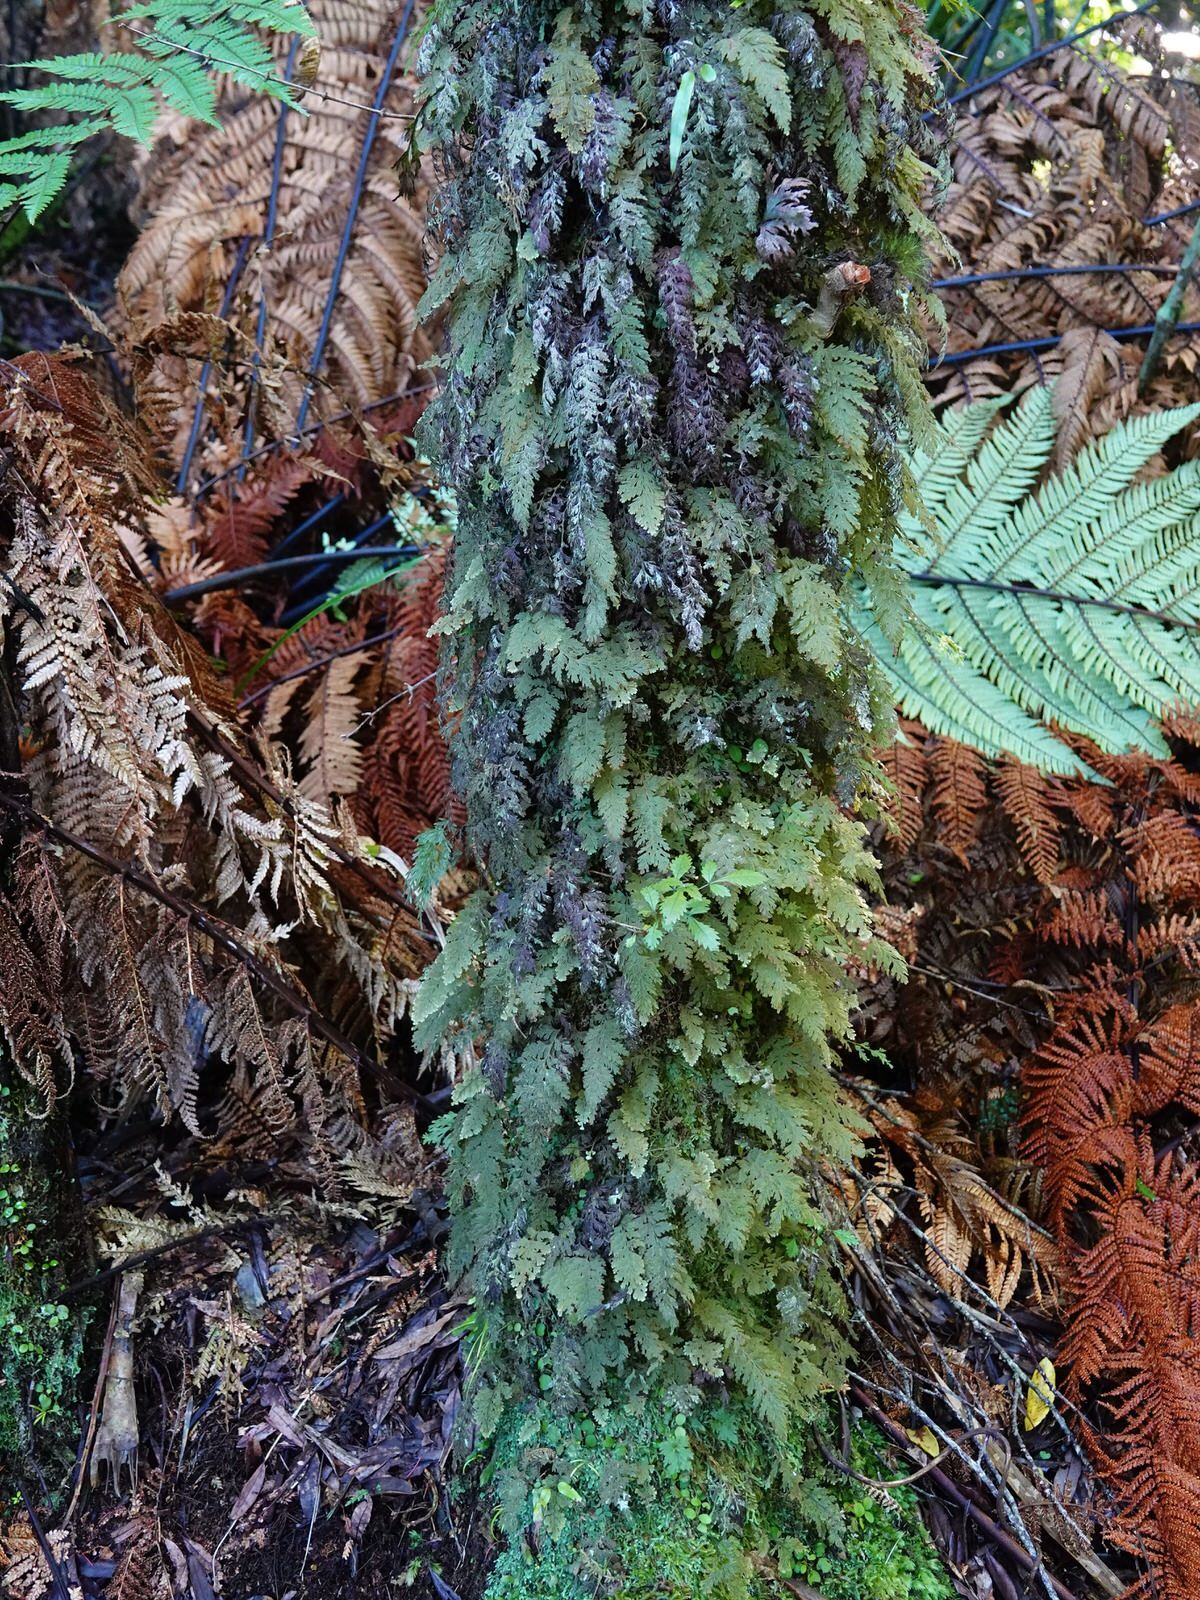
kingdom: Plantae
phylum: Tracheophyta
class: Polypodiopsida
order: Hymenophyllales
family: Hymenophyllaceae
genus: Hymenophyllum
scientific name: Hymenophyllum frankliniae
